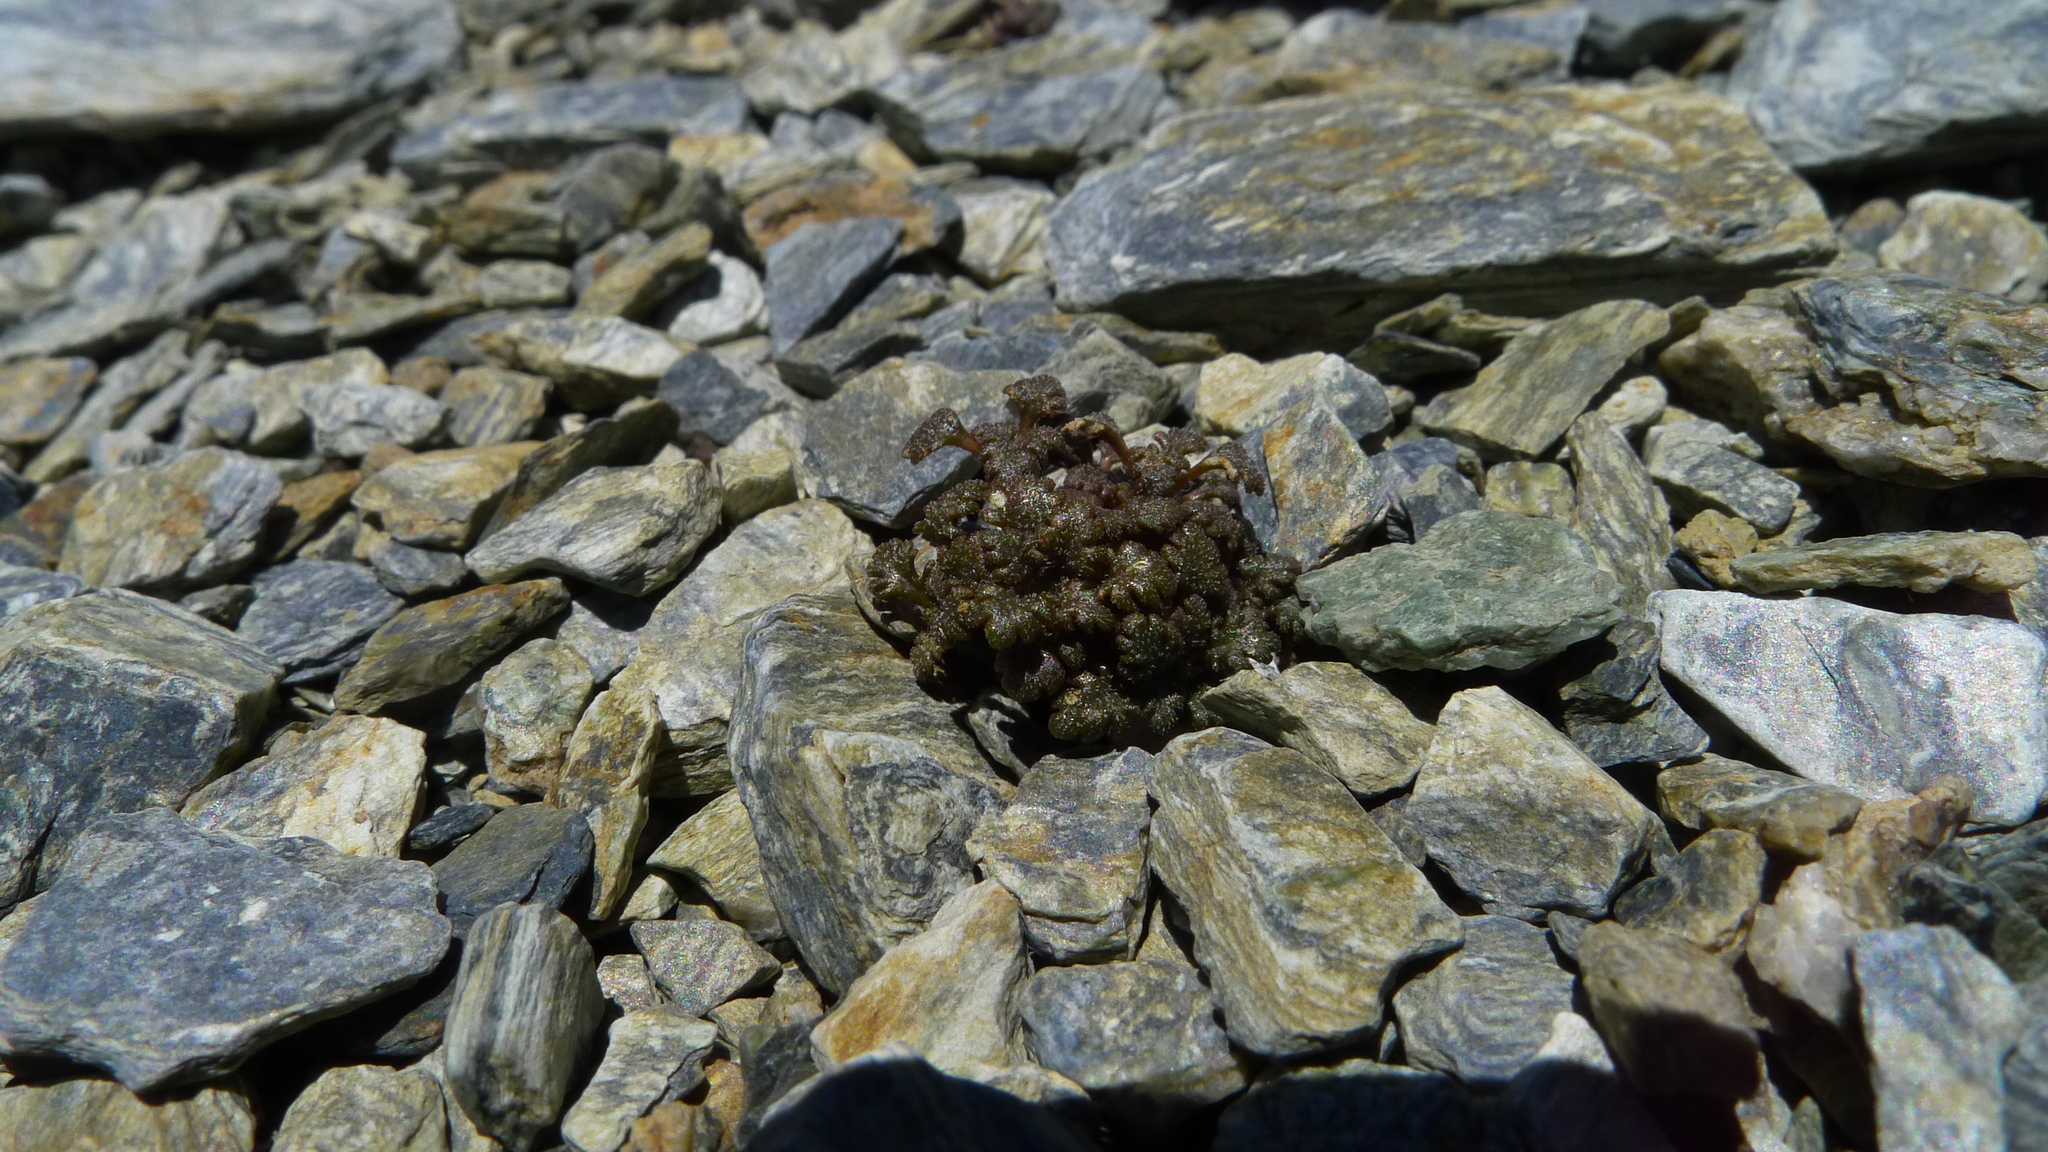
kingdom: Plantae
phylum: Tracheophyta
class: Magnoliopsida
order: Lamiales
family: Plantaginaceae
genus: Veronica
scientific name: Veronica cheesemanii
